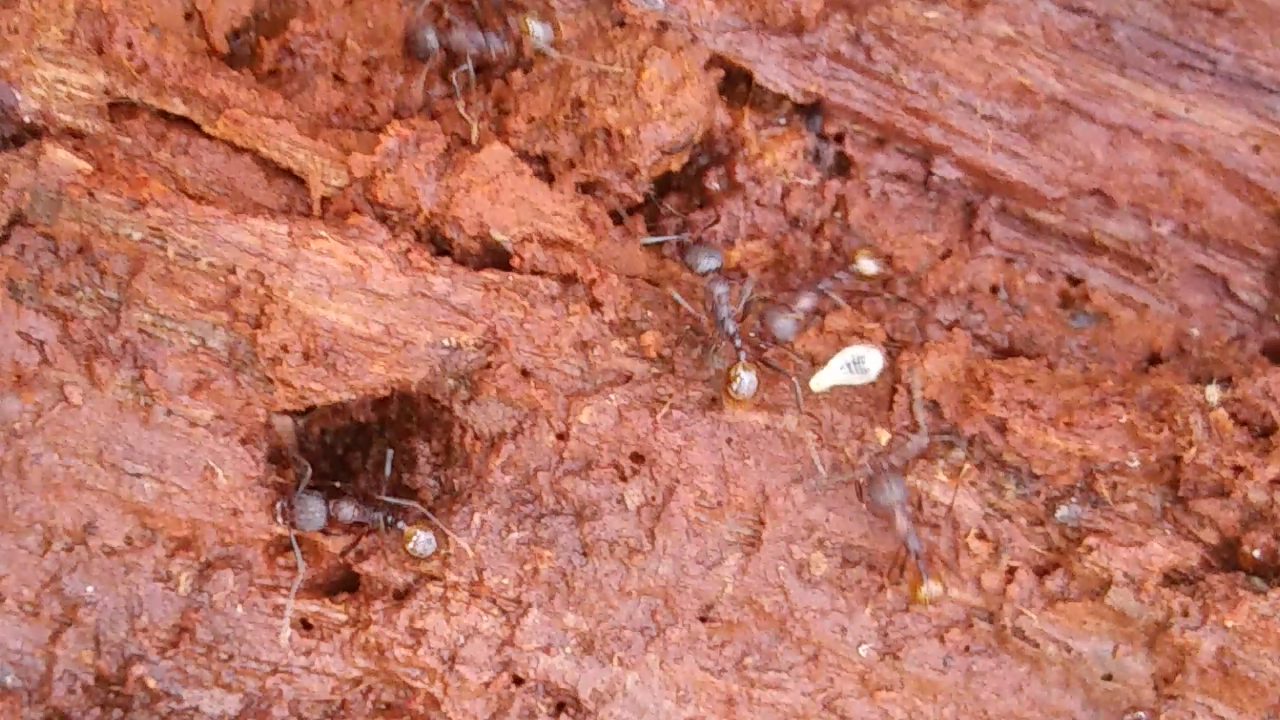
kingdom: Animalia
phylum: Arthropoda
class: Insecta
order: Hymenoptera
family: Formicidae
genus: Aphaenogaster
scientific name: Aphaenogaster fulva
